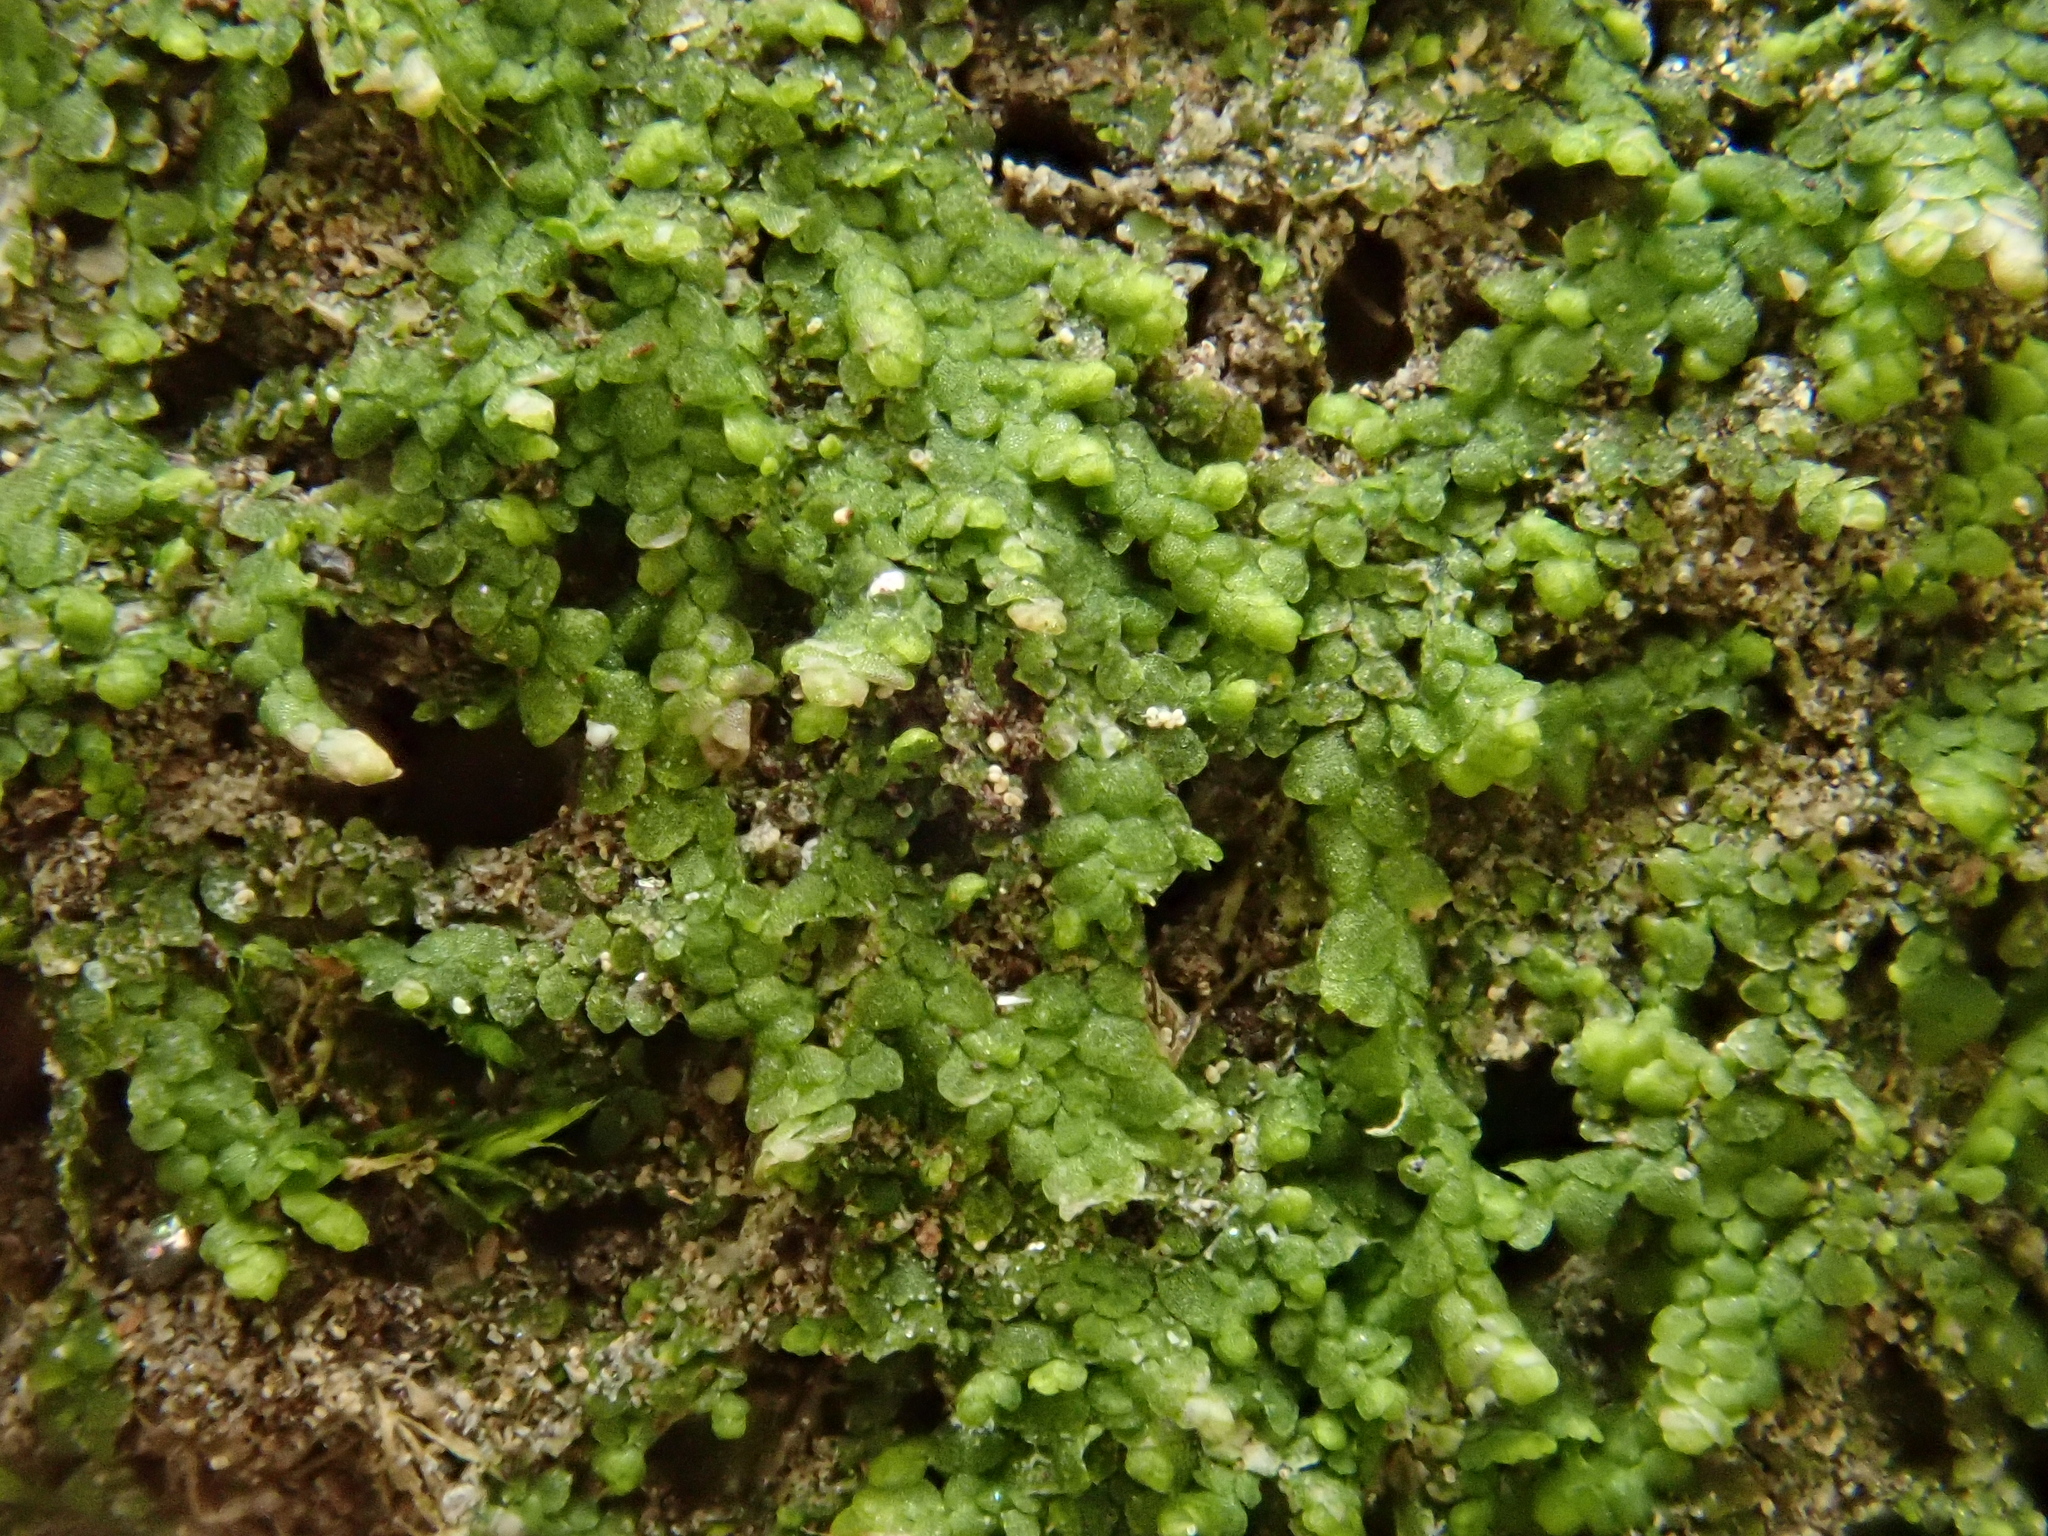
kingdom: Plantae
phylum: Marchantiophyta
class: Jungermanniopsida
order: Porellales
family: Lejeuneaceae
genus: Lejeunea
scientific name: Lejeunea cavifolia
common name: Least pouncewort
